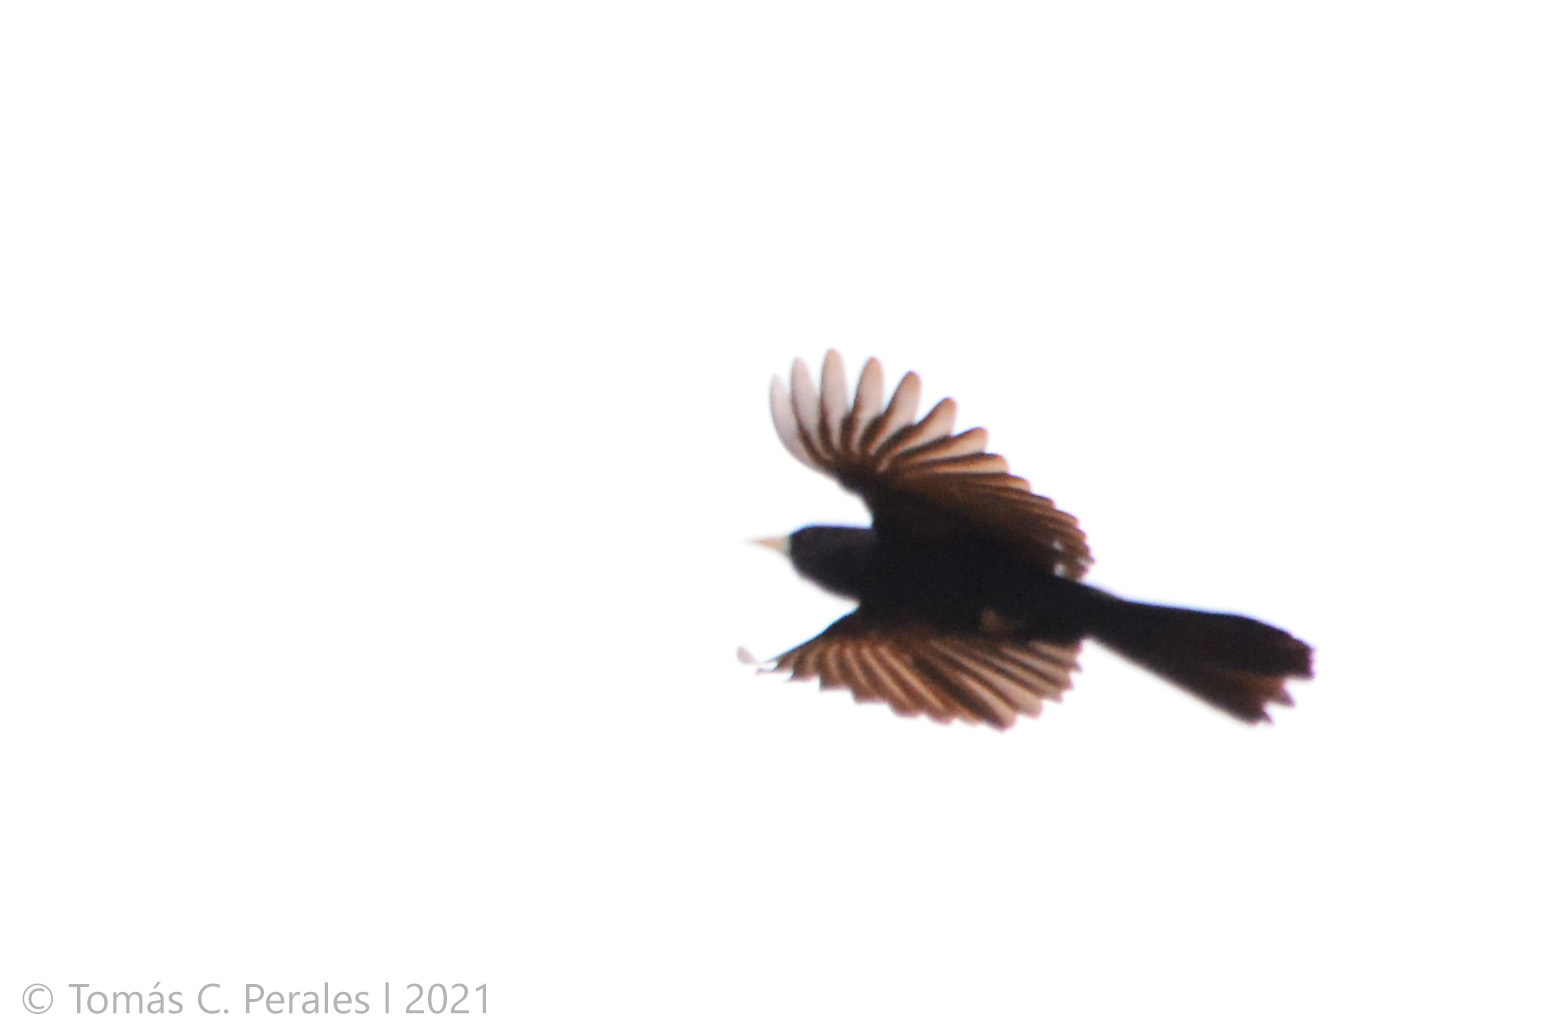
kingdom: Animalia
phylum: Chordata
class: Aves
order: Passeriformes
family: Icteridae
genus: Cacicus
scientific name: Cacicus solitarius
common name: Solitary cacique
